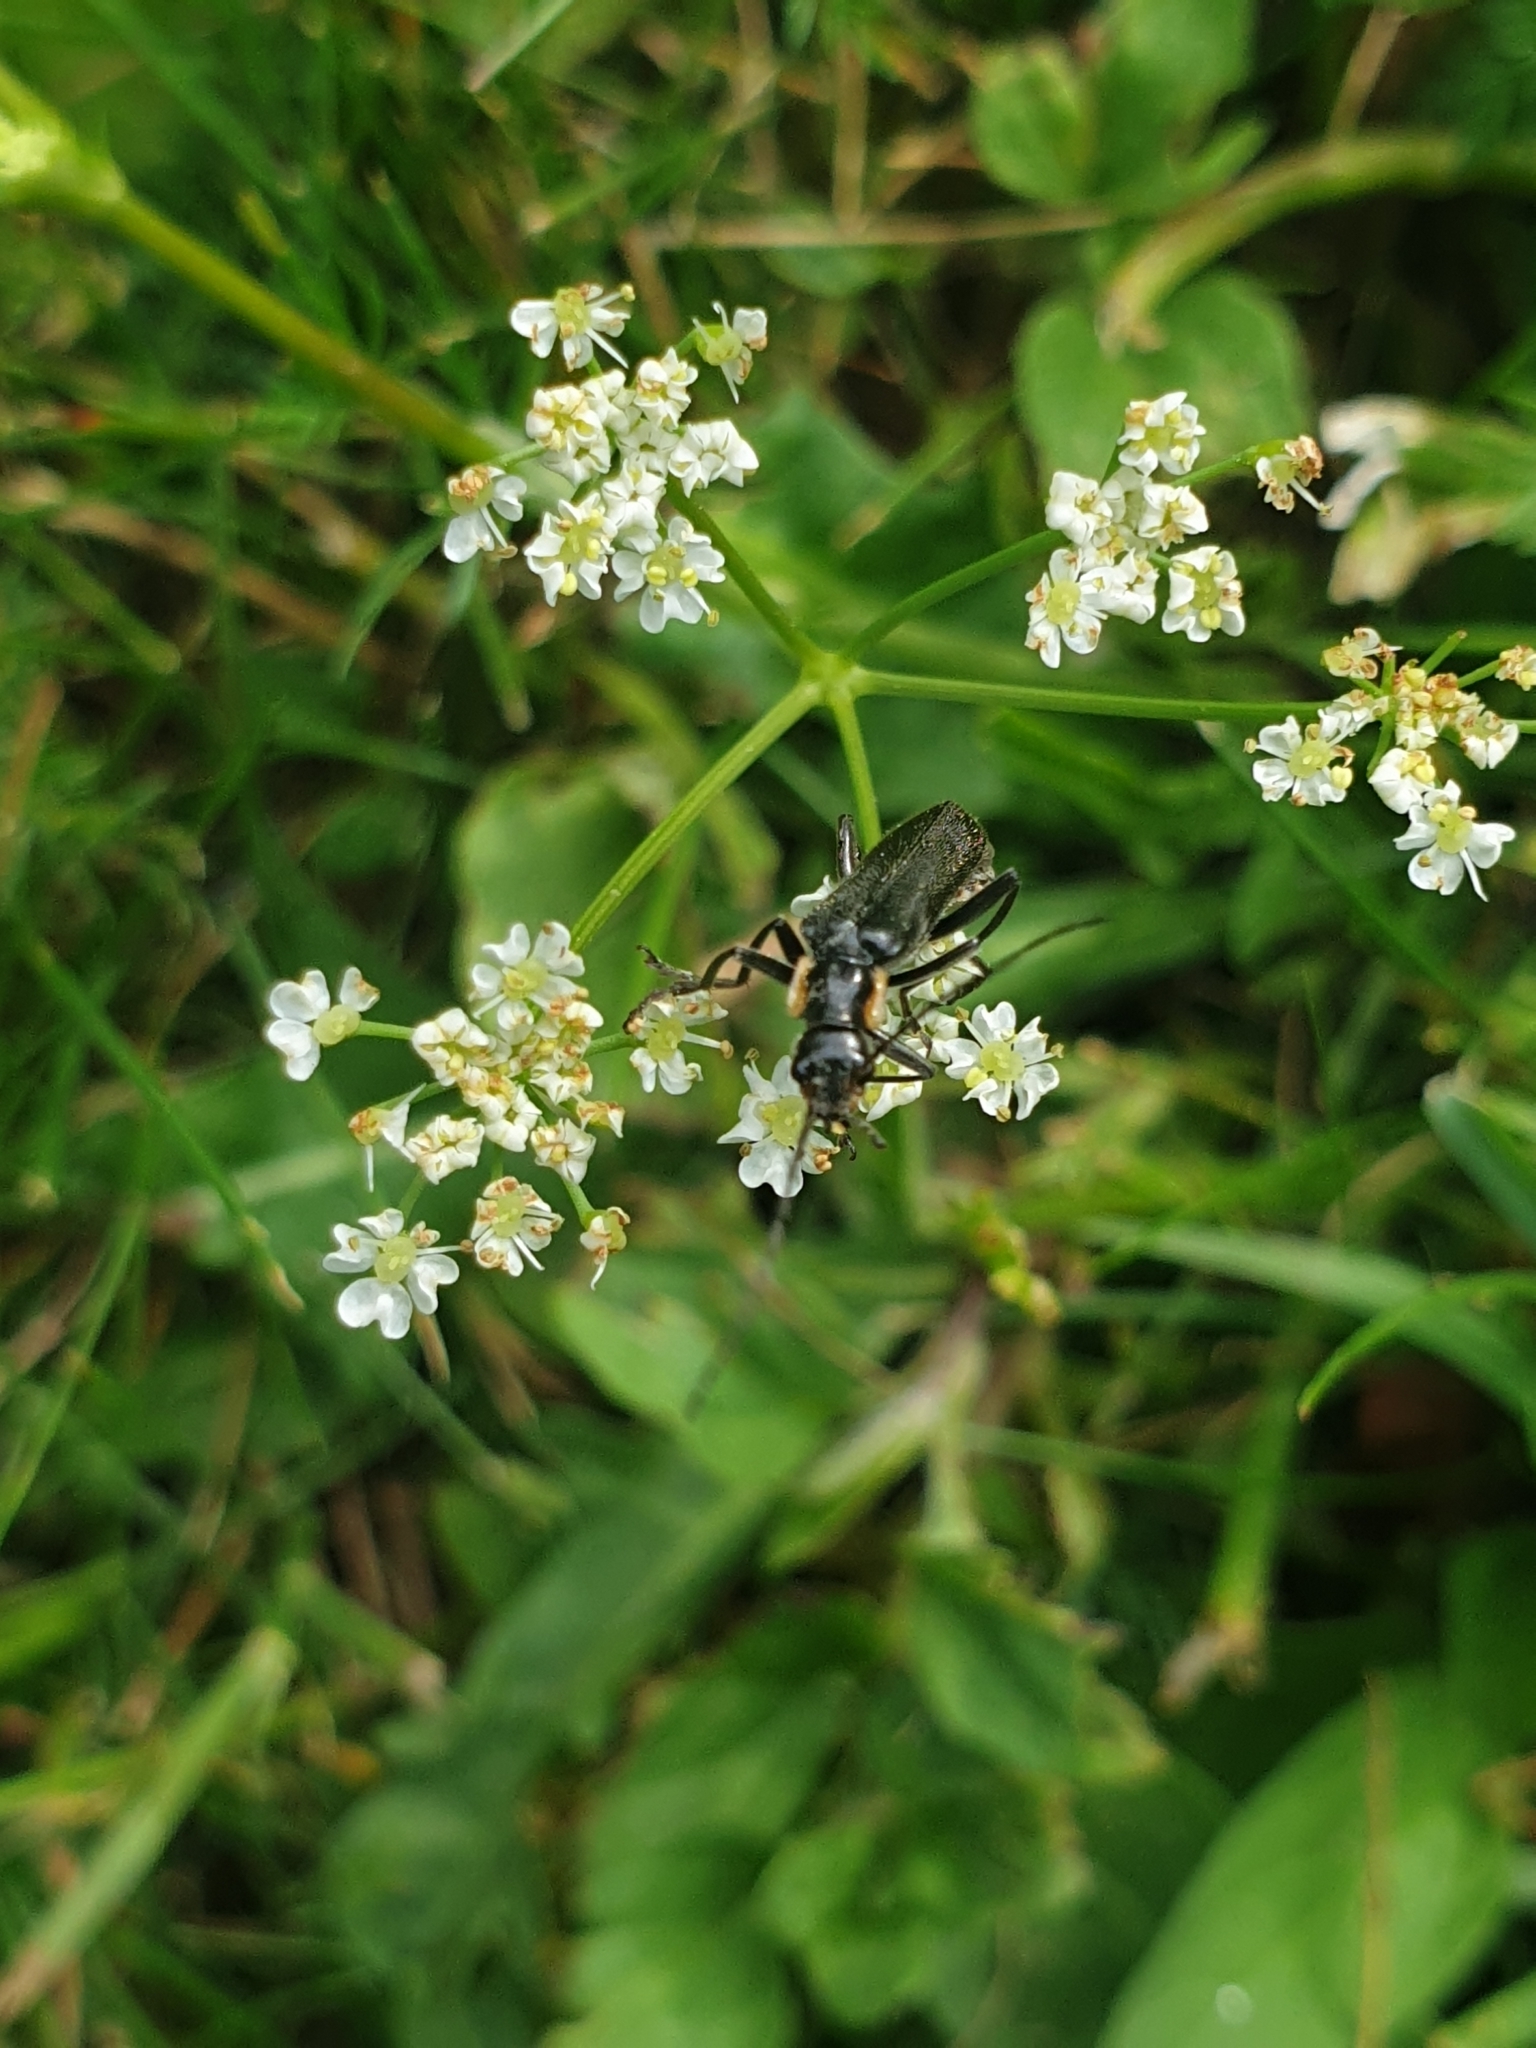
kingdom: Animalia
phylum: Arthropoda
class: Insecta
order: Coleoptera
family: Cantharidae
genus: Cantharis
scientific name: Cantharis obscura
